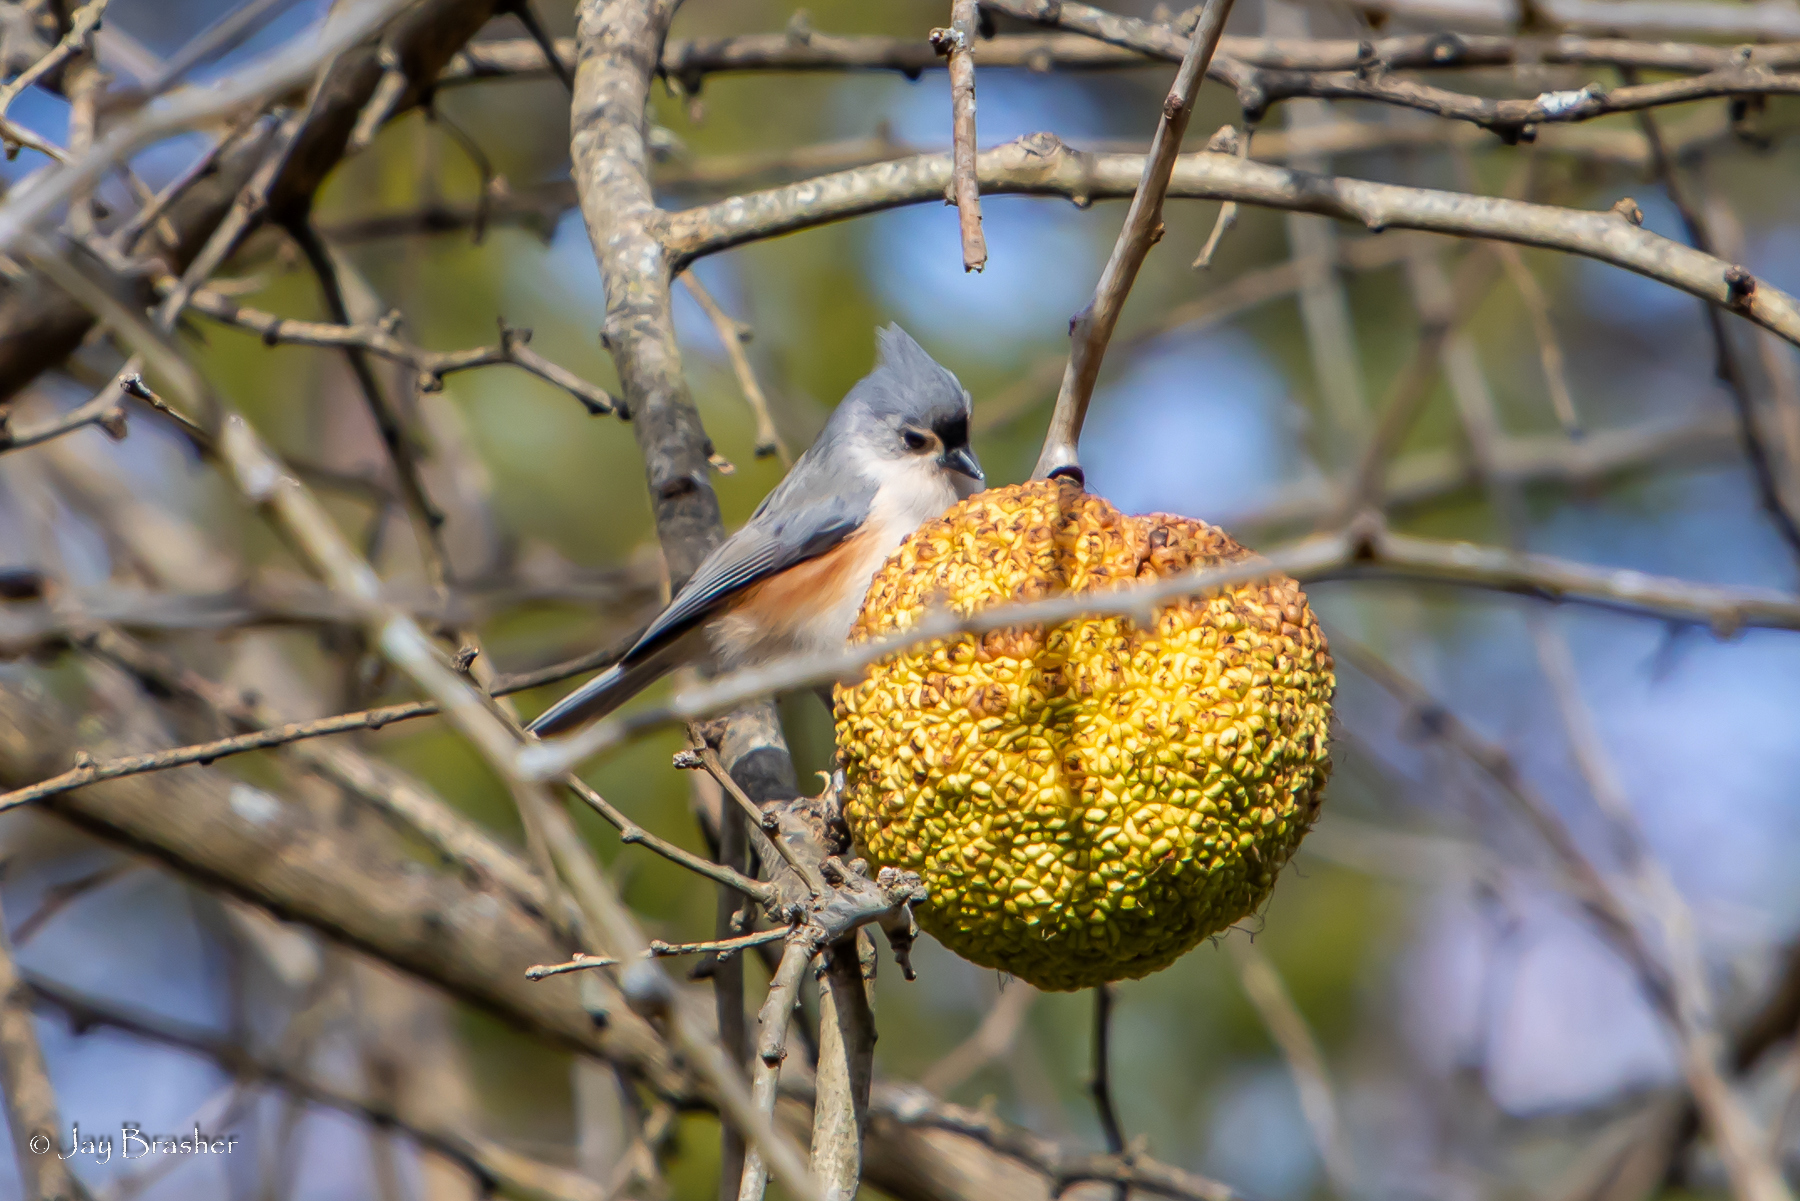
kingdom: Animalia
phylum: Chordata
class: Aves
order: Passeriformes
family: Paridae
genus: Baeolophus
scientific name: Baeolophus bicolor
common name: Tufted titmouse
